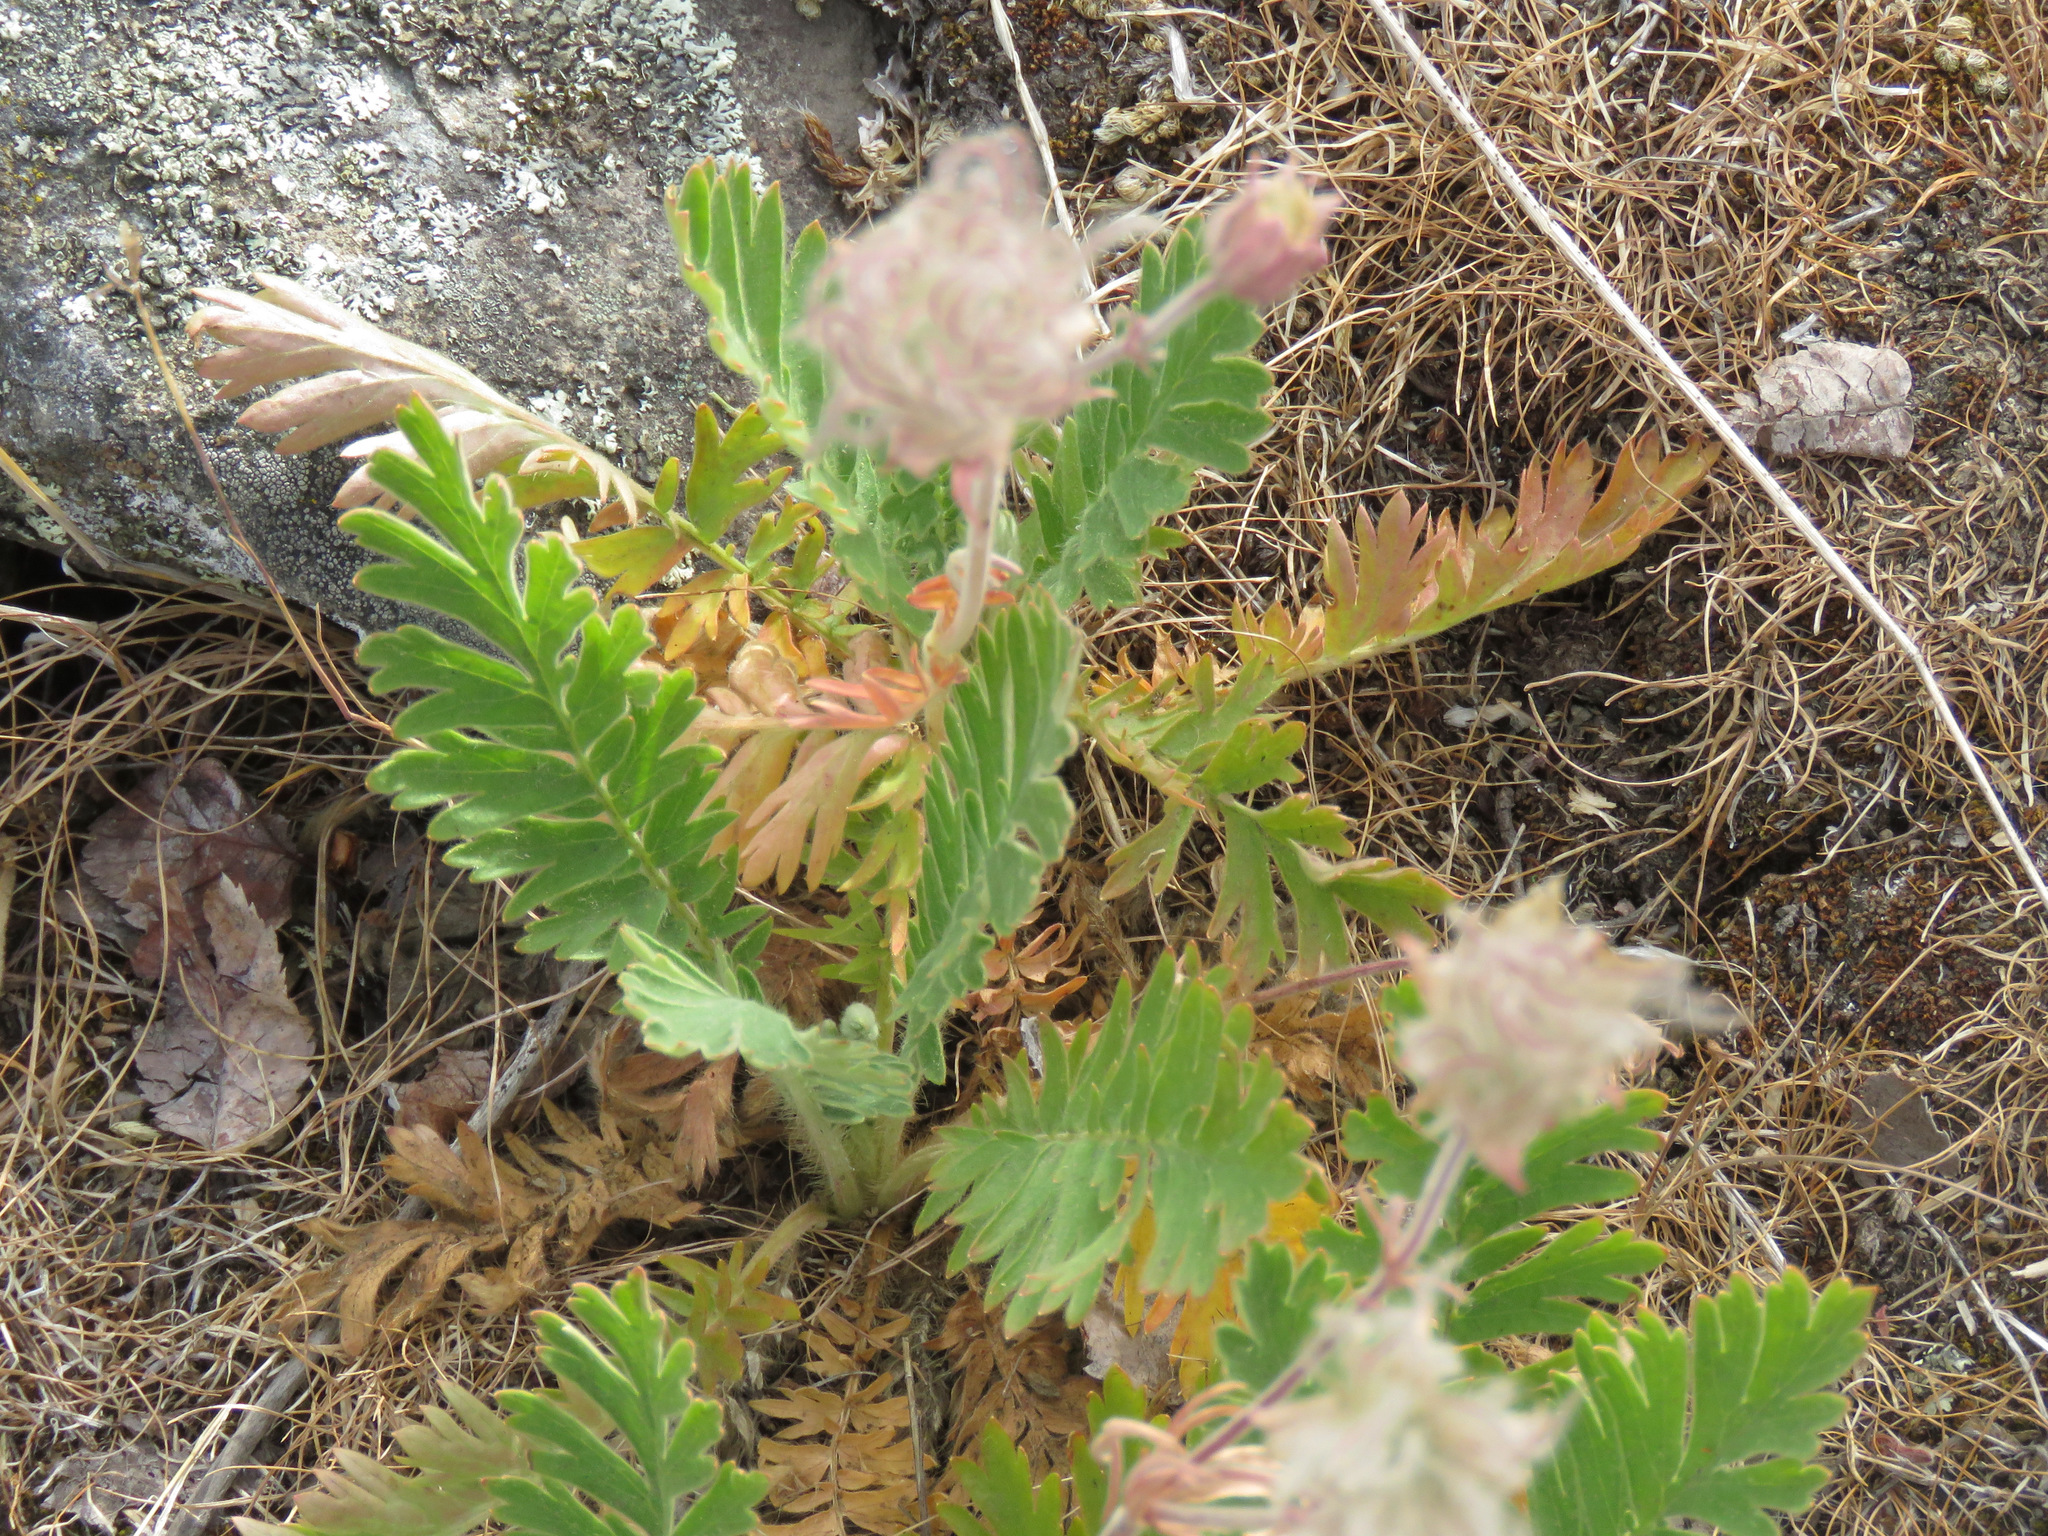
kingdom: Plantae
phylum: Tracheophyta
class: Magnoliopsida
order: Rosales
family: Rosaceae
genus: Geum
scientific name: Geum triflorum
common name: Old man's whiskers
